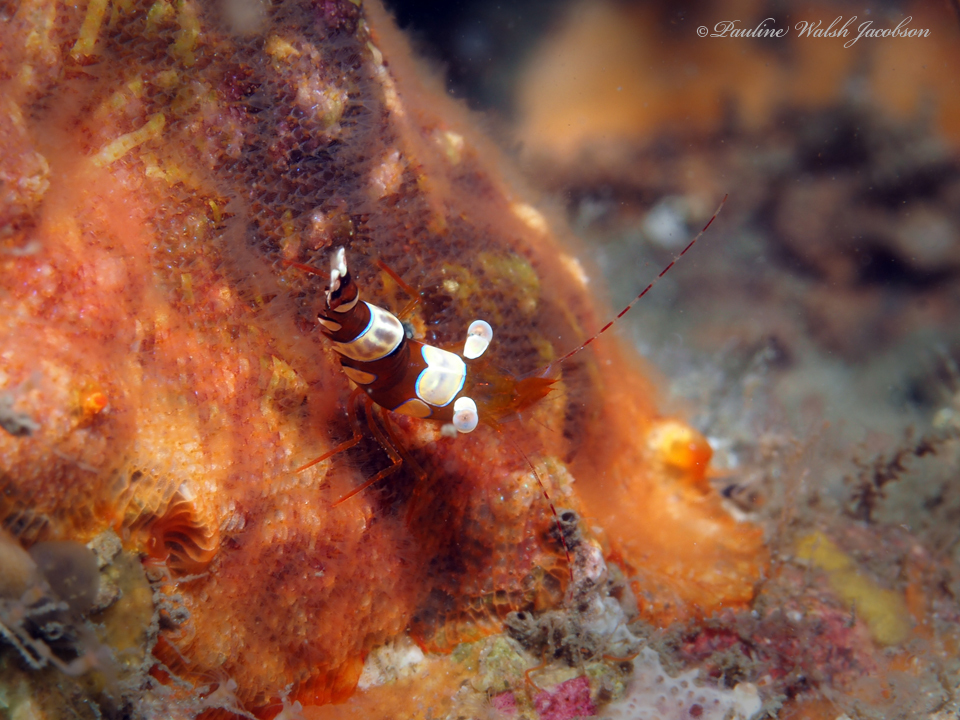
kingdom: Animalia
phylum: Arthropoda
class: Malacostraca
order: Decapoda
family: Thoridae
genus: Thor
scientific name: Thor dicaprio
